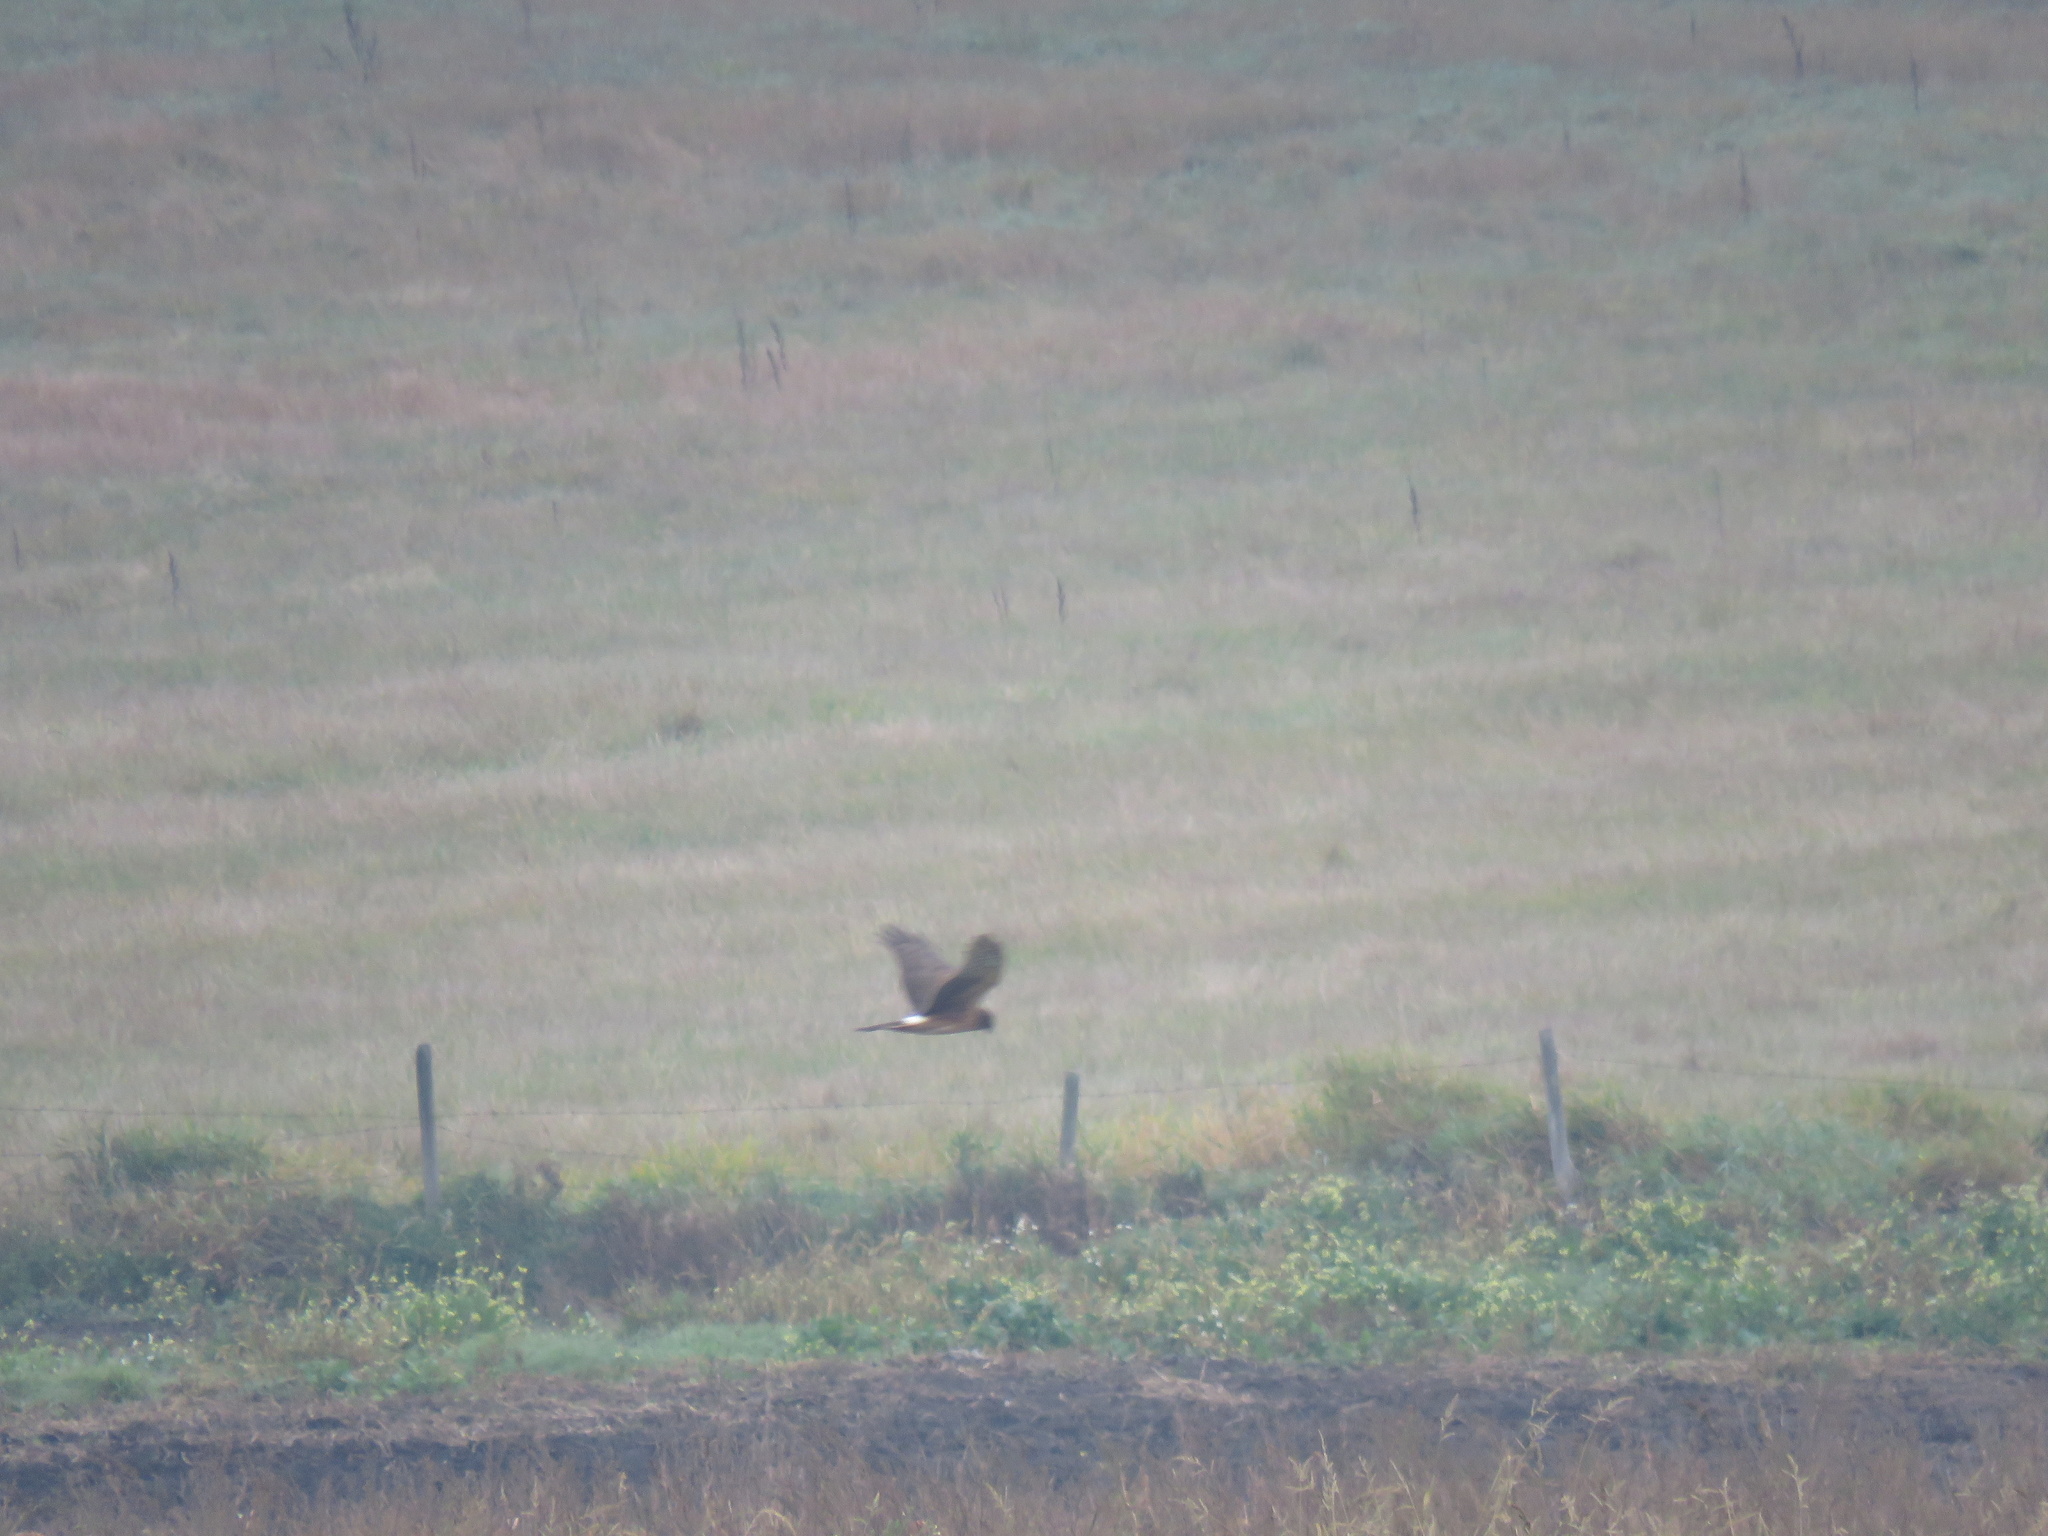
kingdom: Animalia
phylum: Chordata
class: Aves
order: Accipitriformes
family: Accipitridae
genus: Circus
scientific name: Circus cyaneus
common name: Hen harrier
